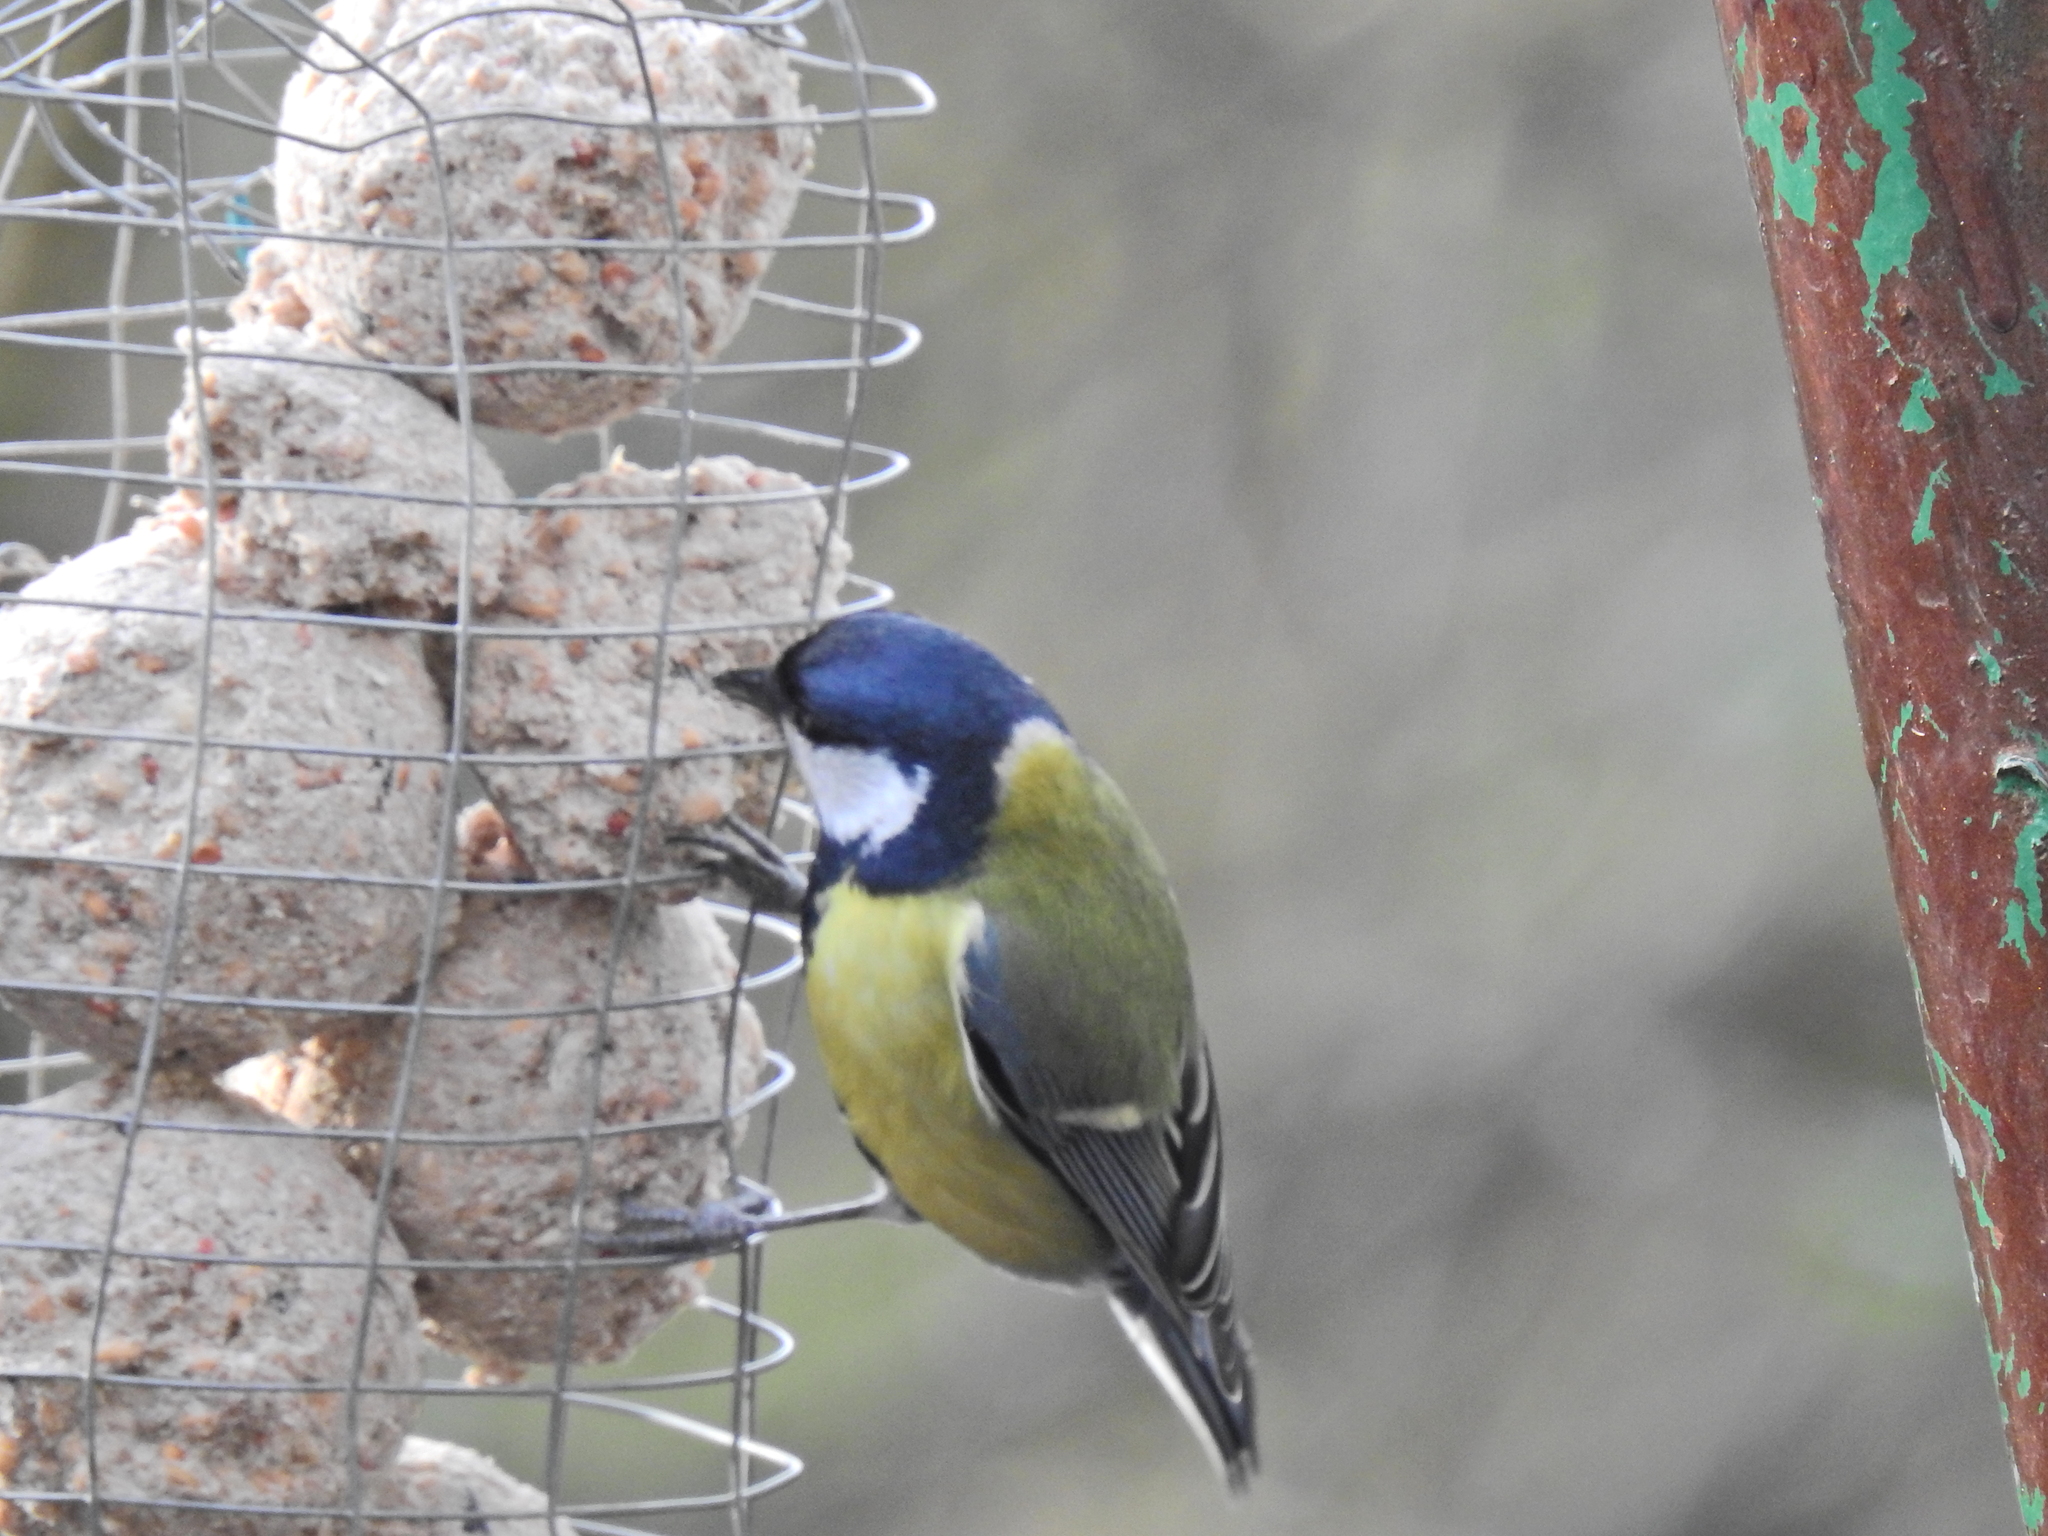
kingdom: Animalia
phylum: Chordata
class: Aves
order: Passeriformes
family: Paridae
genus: Parus
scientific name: Parus major
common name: Great tit
